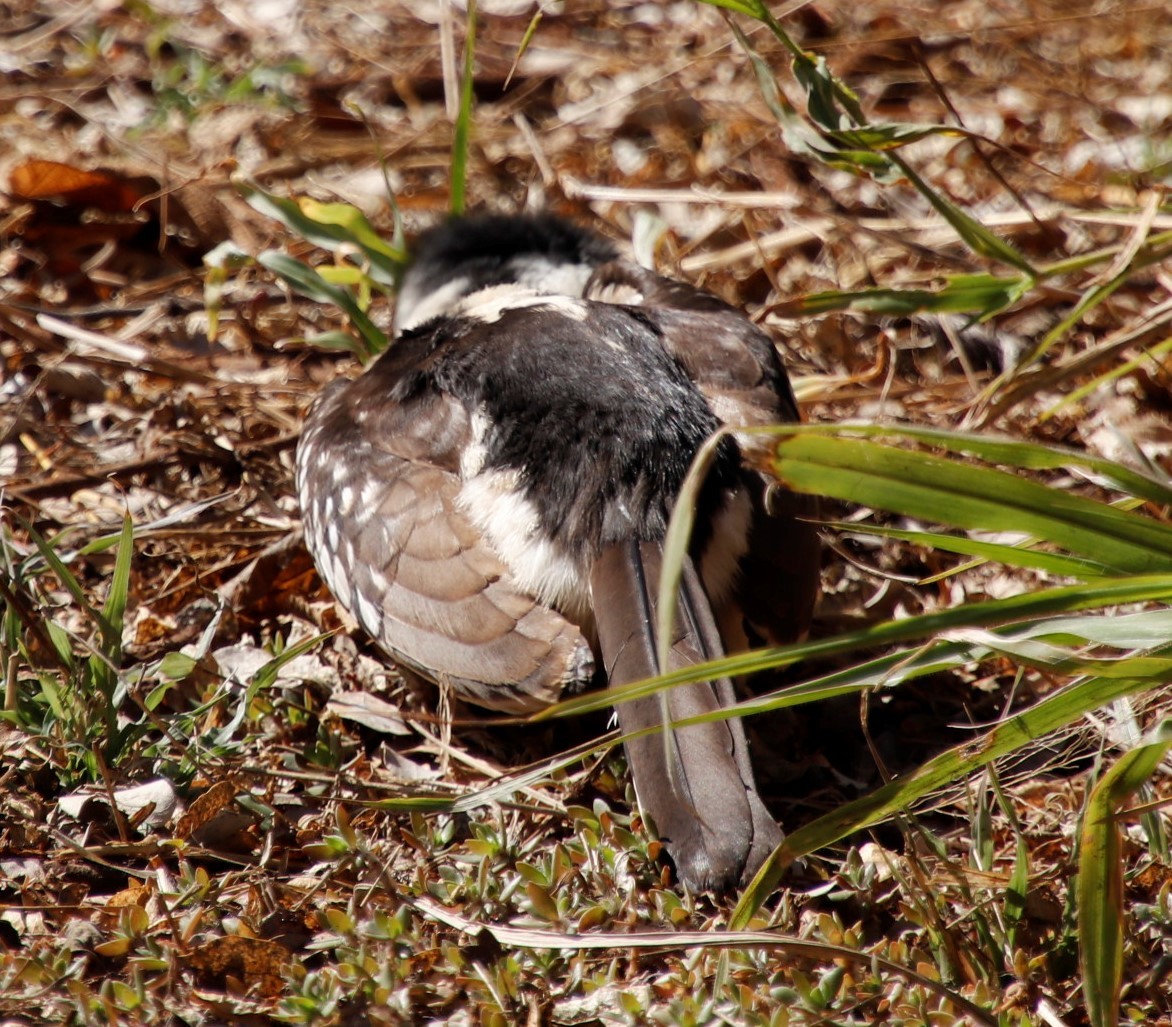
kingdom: Animalia
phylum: Chordata
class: Aves
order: Bucerotiformes
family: Bucerotidae
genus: Tockus
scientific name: Tockus rufirostris
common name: Southern red-billed hornbill
